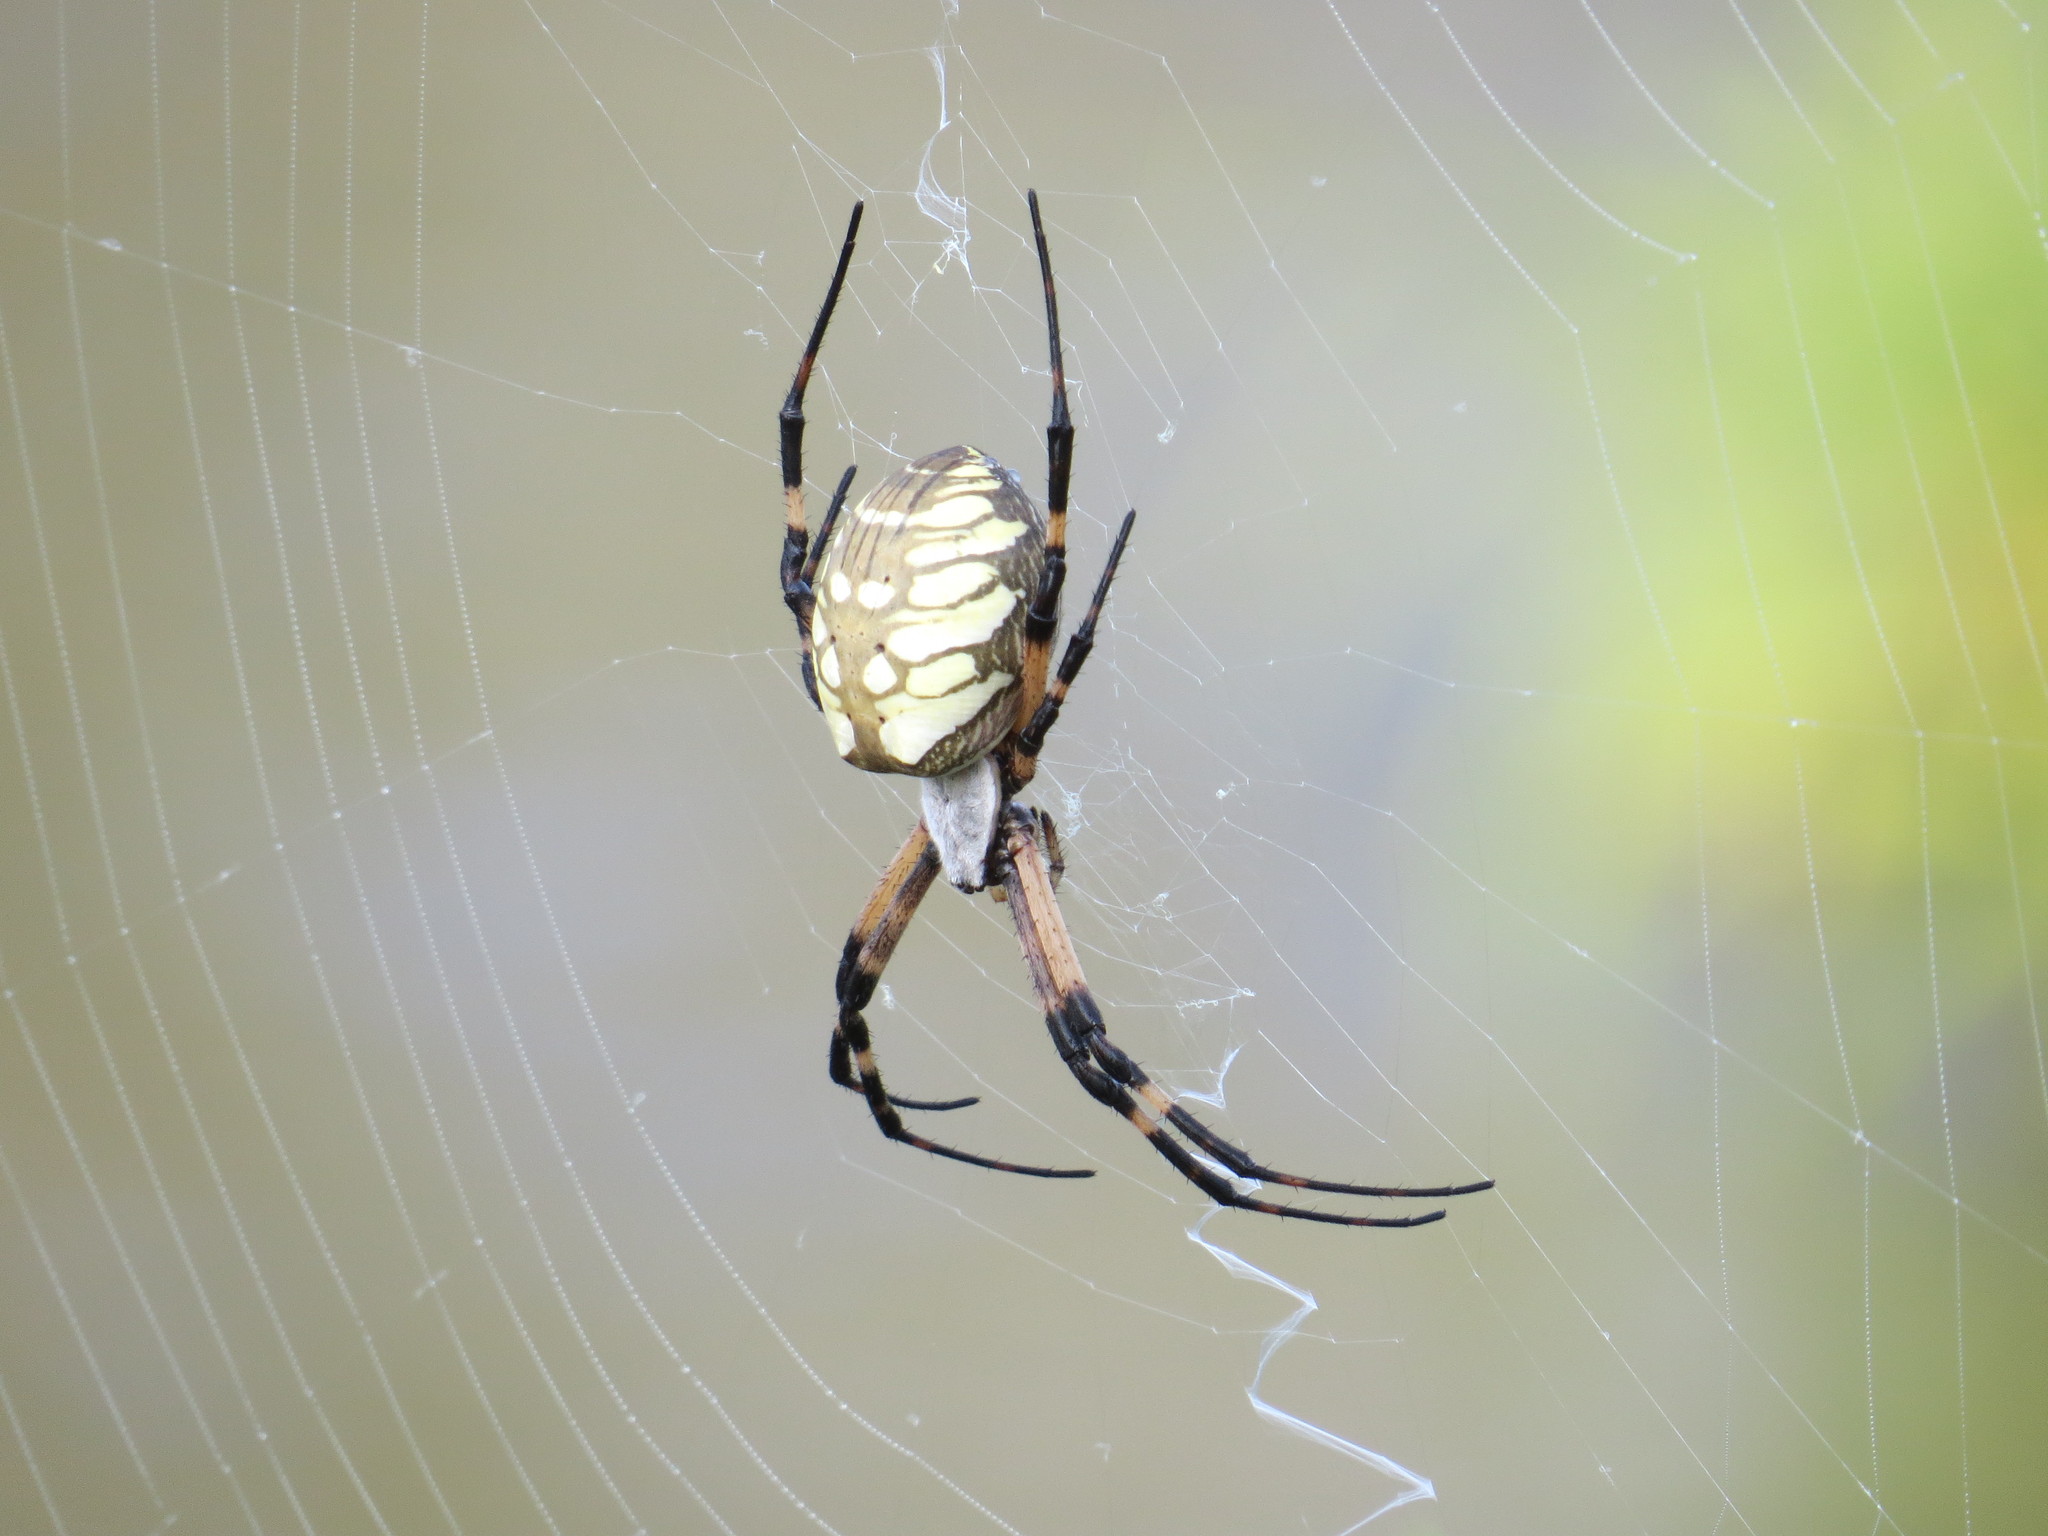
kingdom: Animalia
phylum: Arthropoda
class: Arachnida
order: Araneae
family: Araneidae
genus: Argiope
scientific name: Argiope aurantia
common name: Orb weavers
